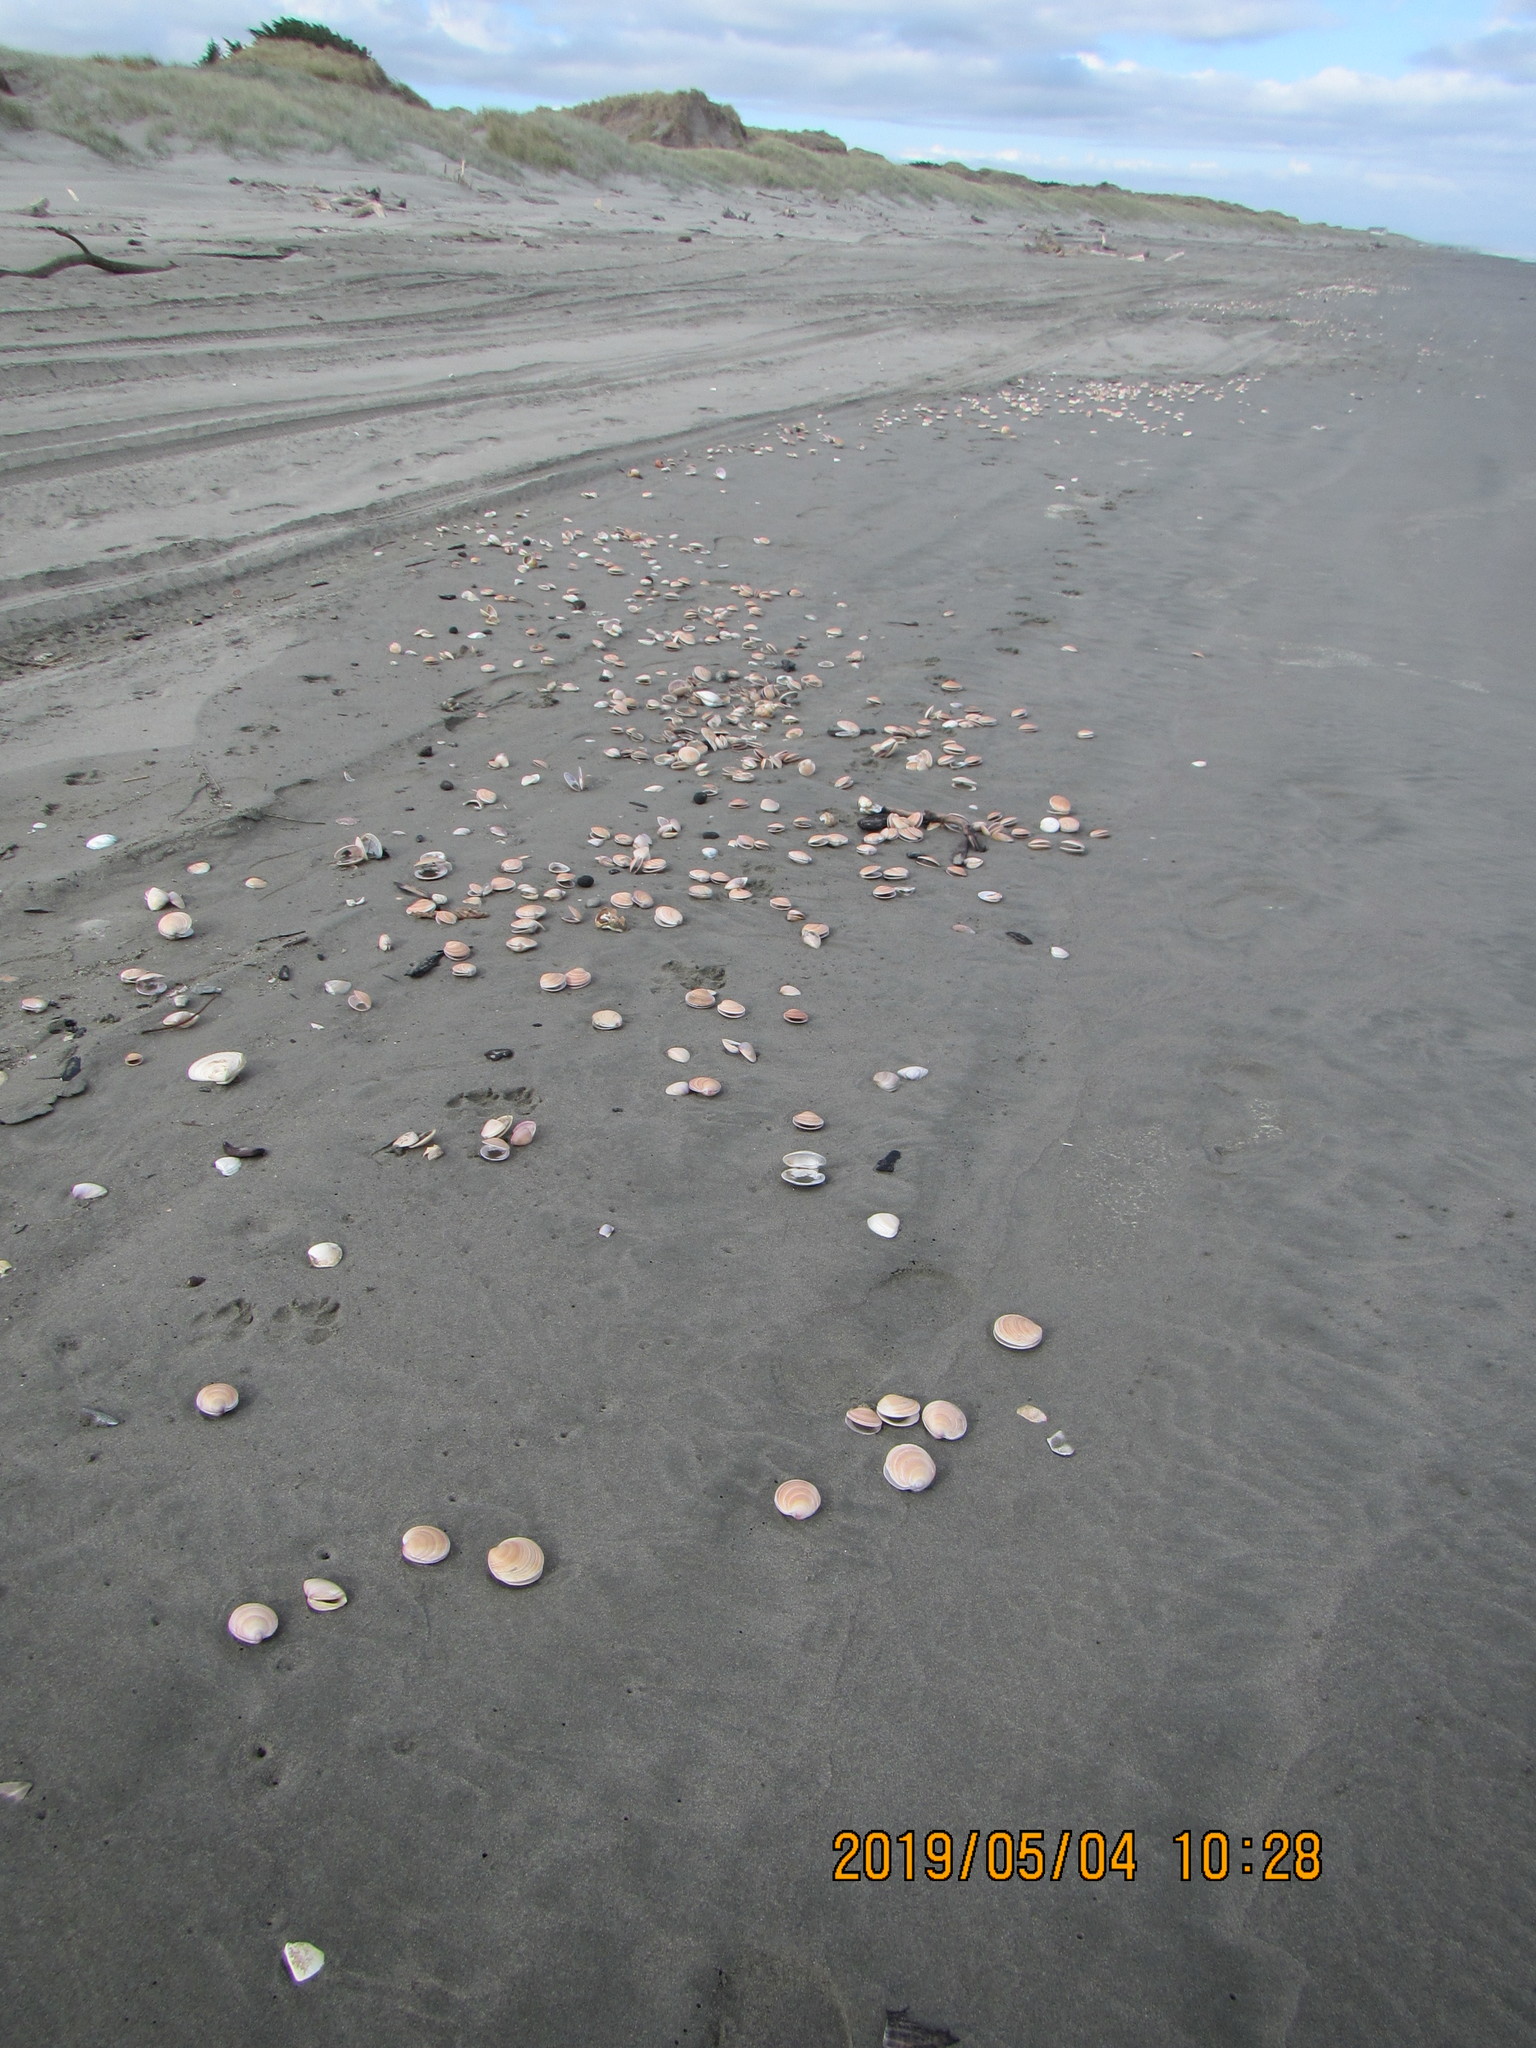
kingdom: Animalia
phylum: Mollusca
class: Bivalvia
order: Venerida
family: Veneridae
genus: Dosinia
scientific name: Dosinia anus
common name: Old-woman dosinia
